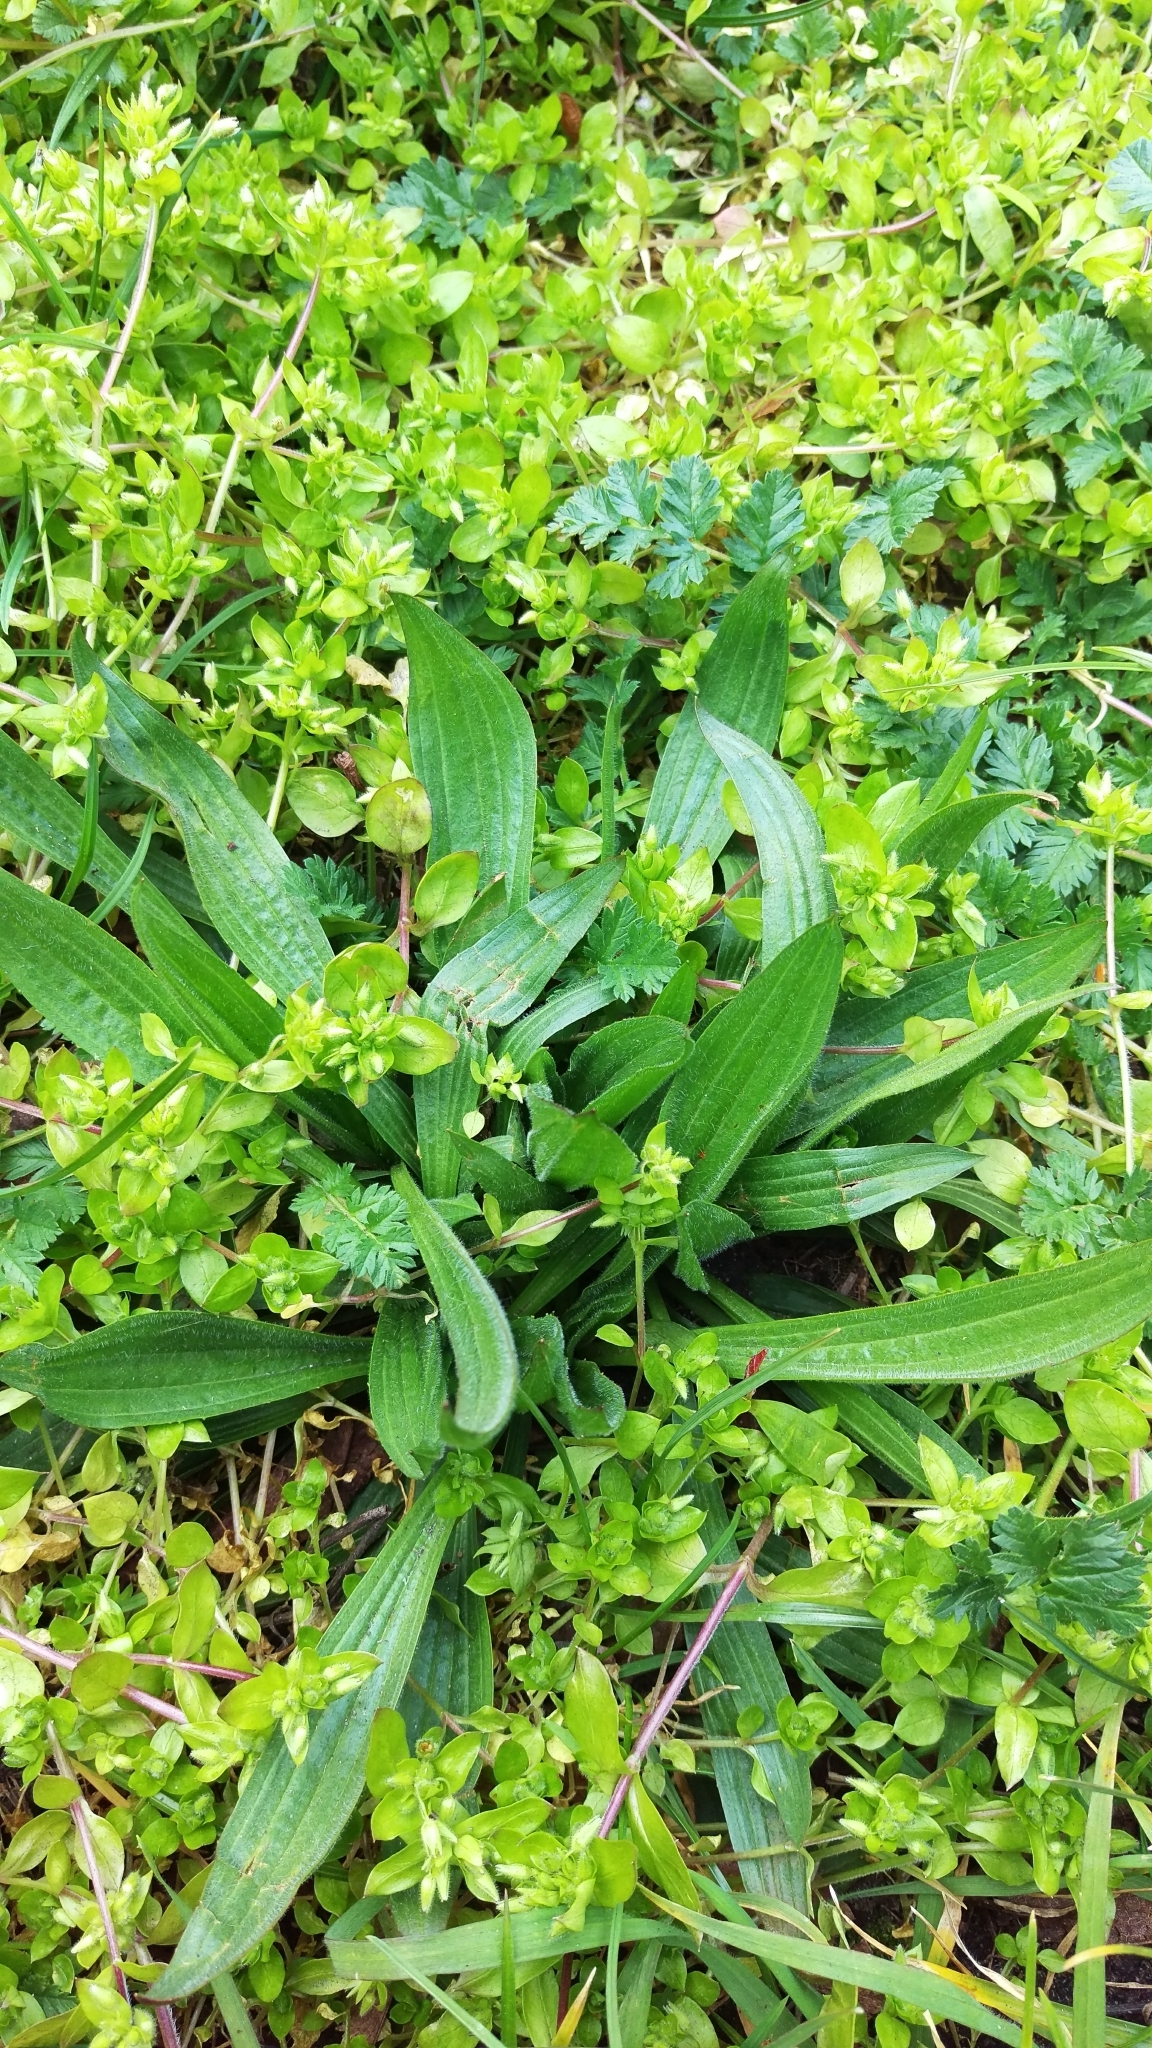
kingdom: Plantae
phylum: Tracheophyta
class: Magnoliopsida
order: Lamiales
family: Plantaginaceae
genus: Plantago
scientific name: Plantago lanceolata
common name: Ribwort plantain
